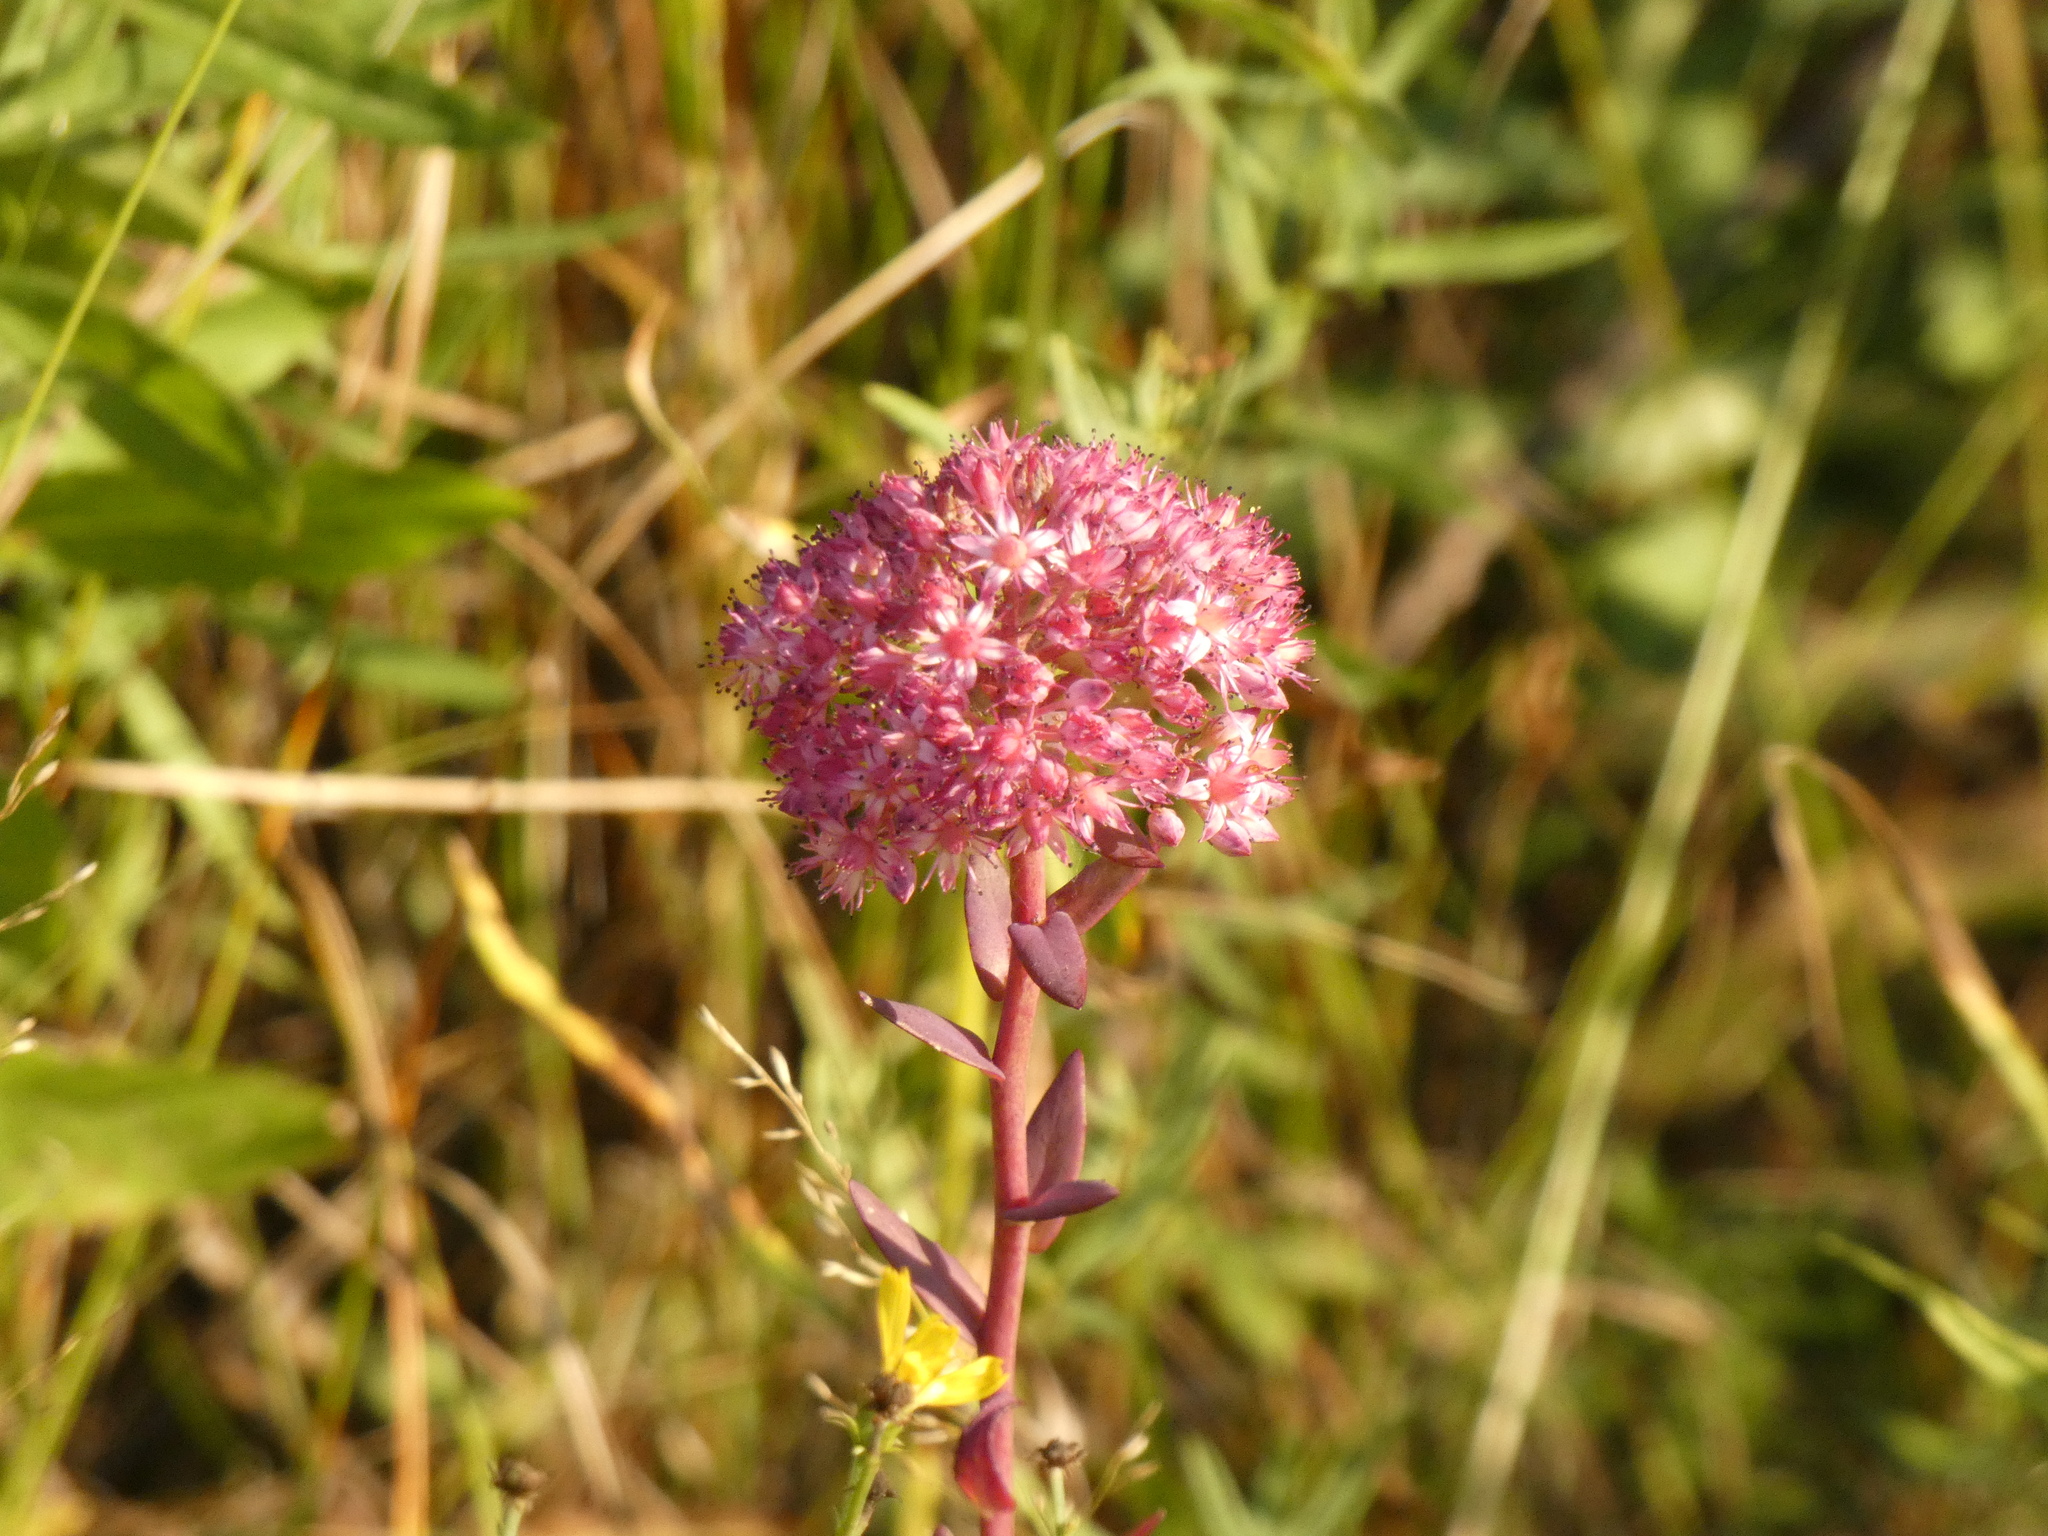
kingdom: Plantae
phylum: Tracheophyta
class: Magnoliopsida
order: Saxifragales
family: Crassulaceae
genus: Hylotelephium
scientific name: Hylotelephium telephium
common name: Live-forever
